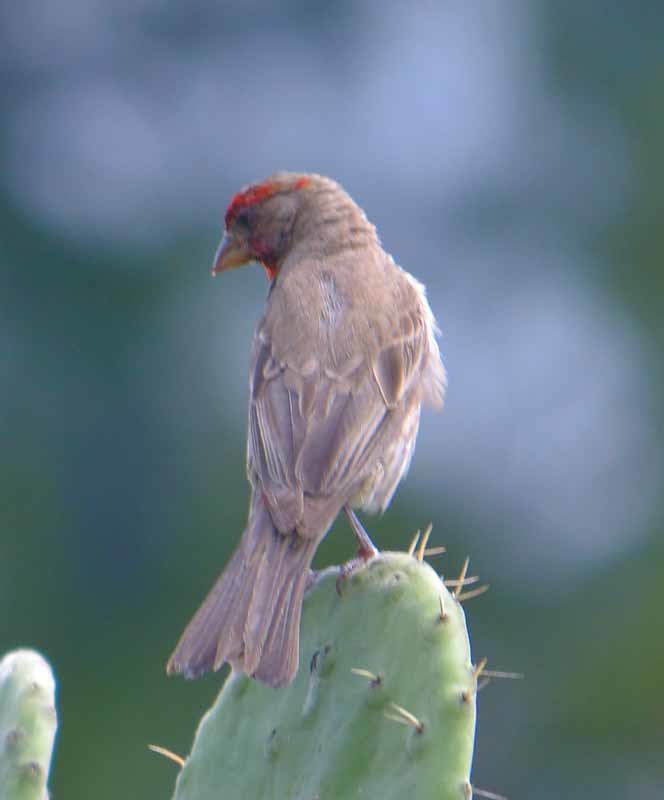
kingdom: Animalia
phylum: Chordata
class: Aves
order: Passeriformes
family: Fringillidae
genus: Haemorhous
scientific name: Haemorhous mexicanus
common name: House finch
